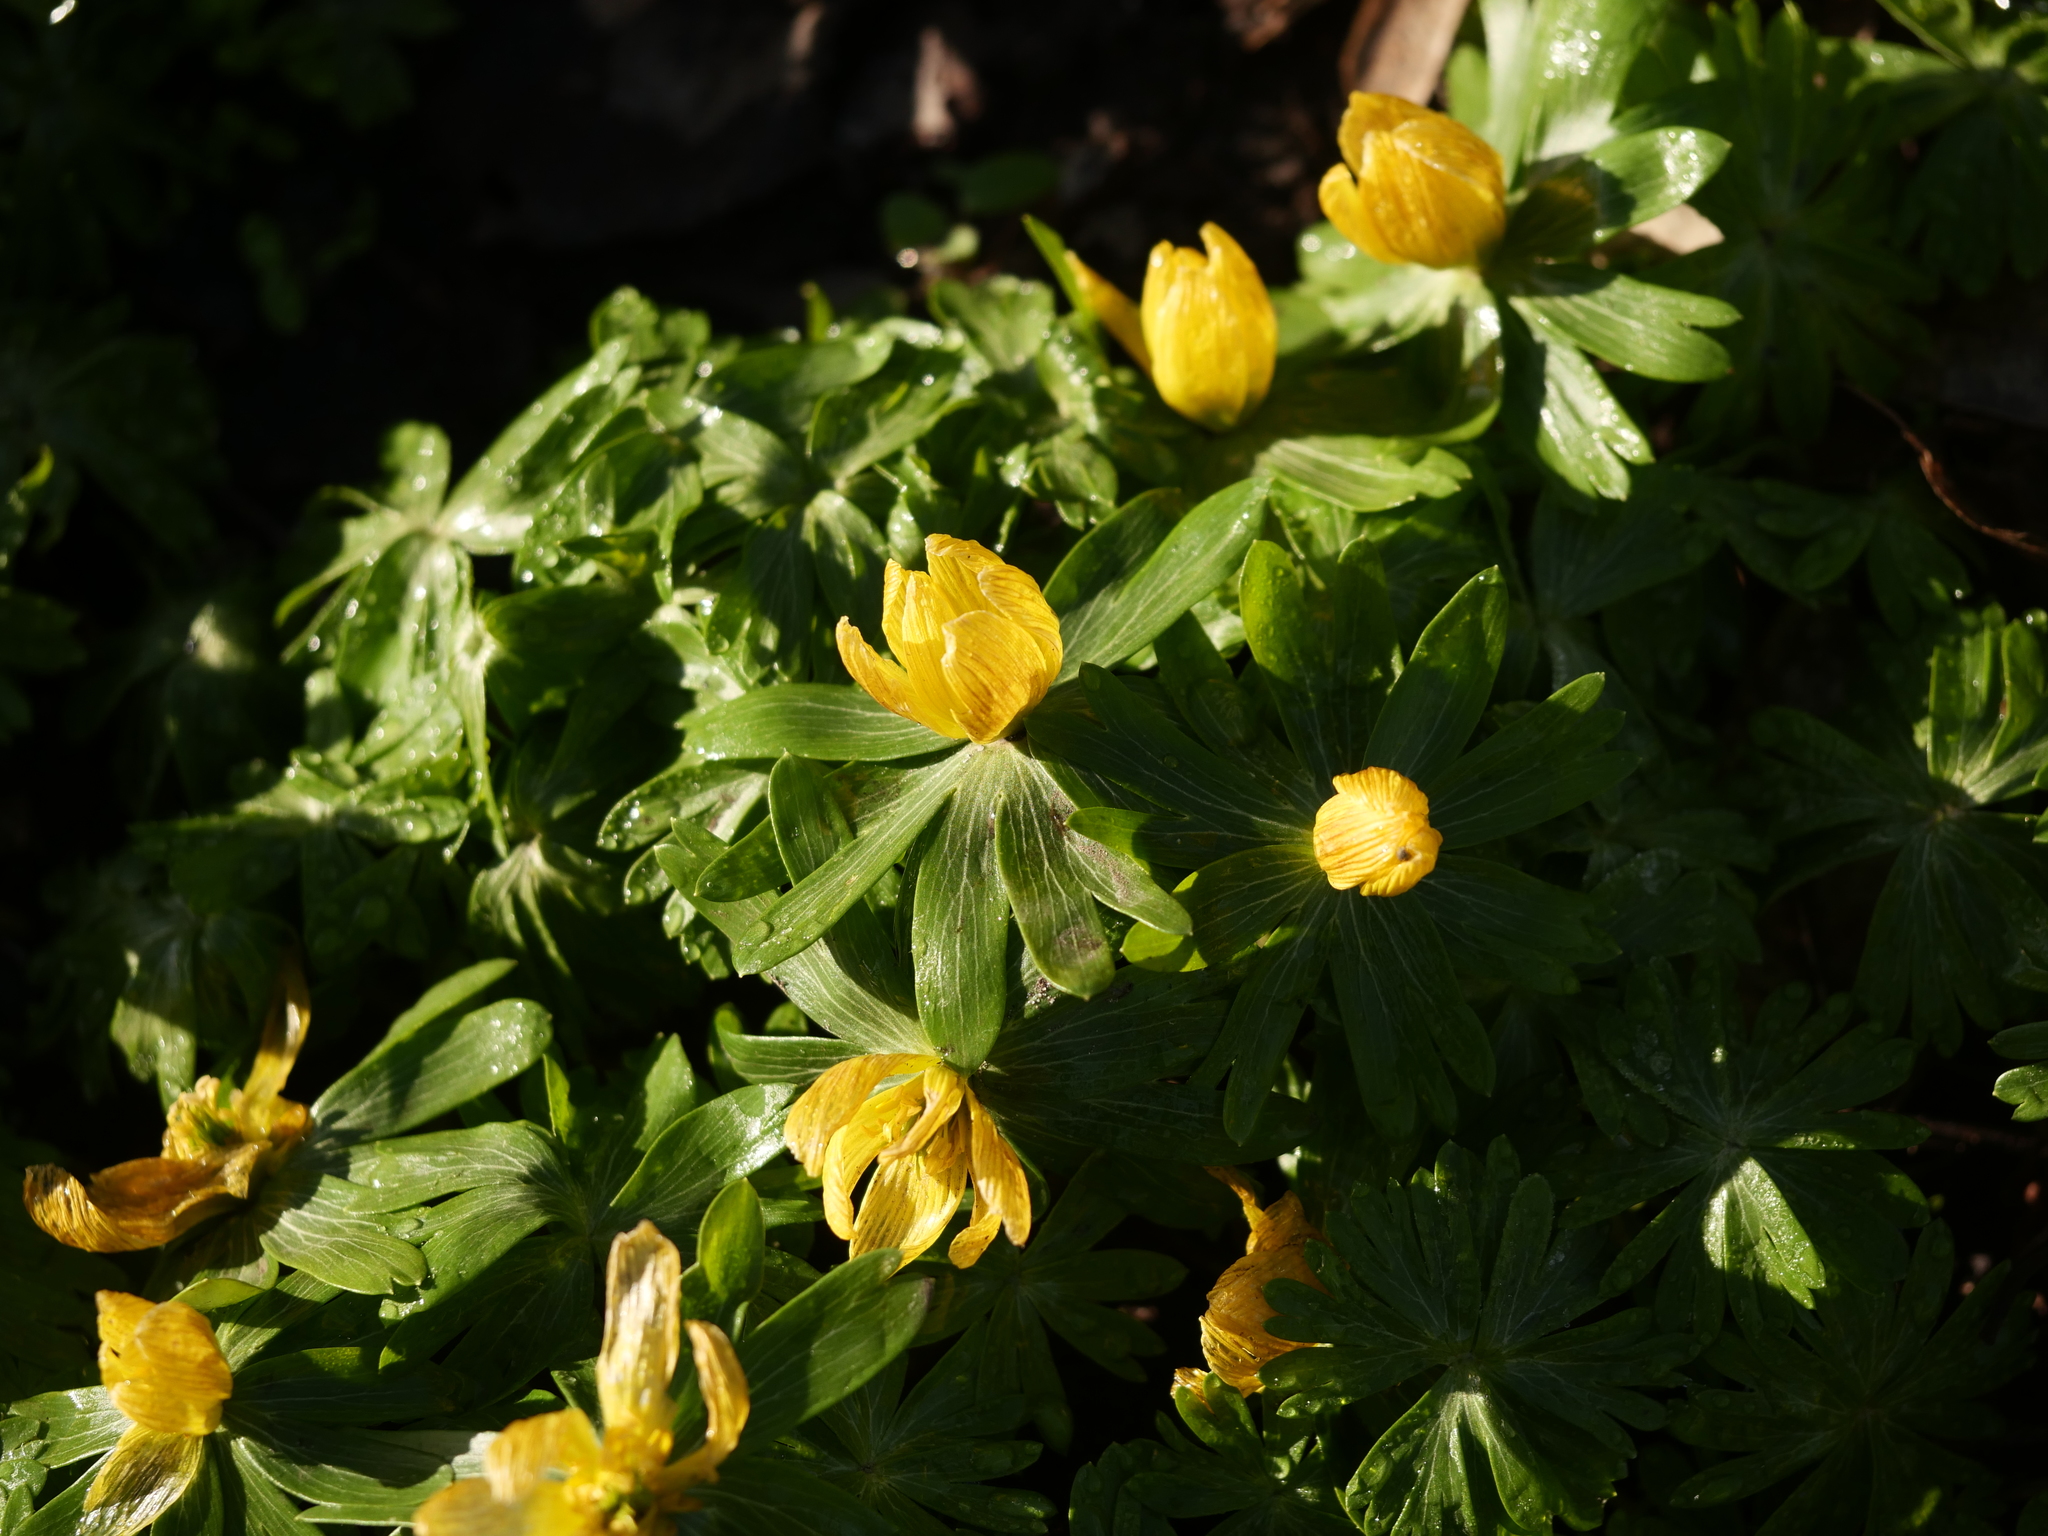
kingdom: Plantae
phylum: Tracheophyta
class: Magnoliopsida
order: Ranunculales
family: Ranunculaceae
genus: Eranthis
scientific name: Eranthis hyemalis
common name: Winter aconite
